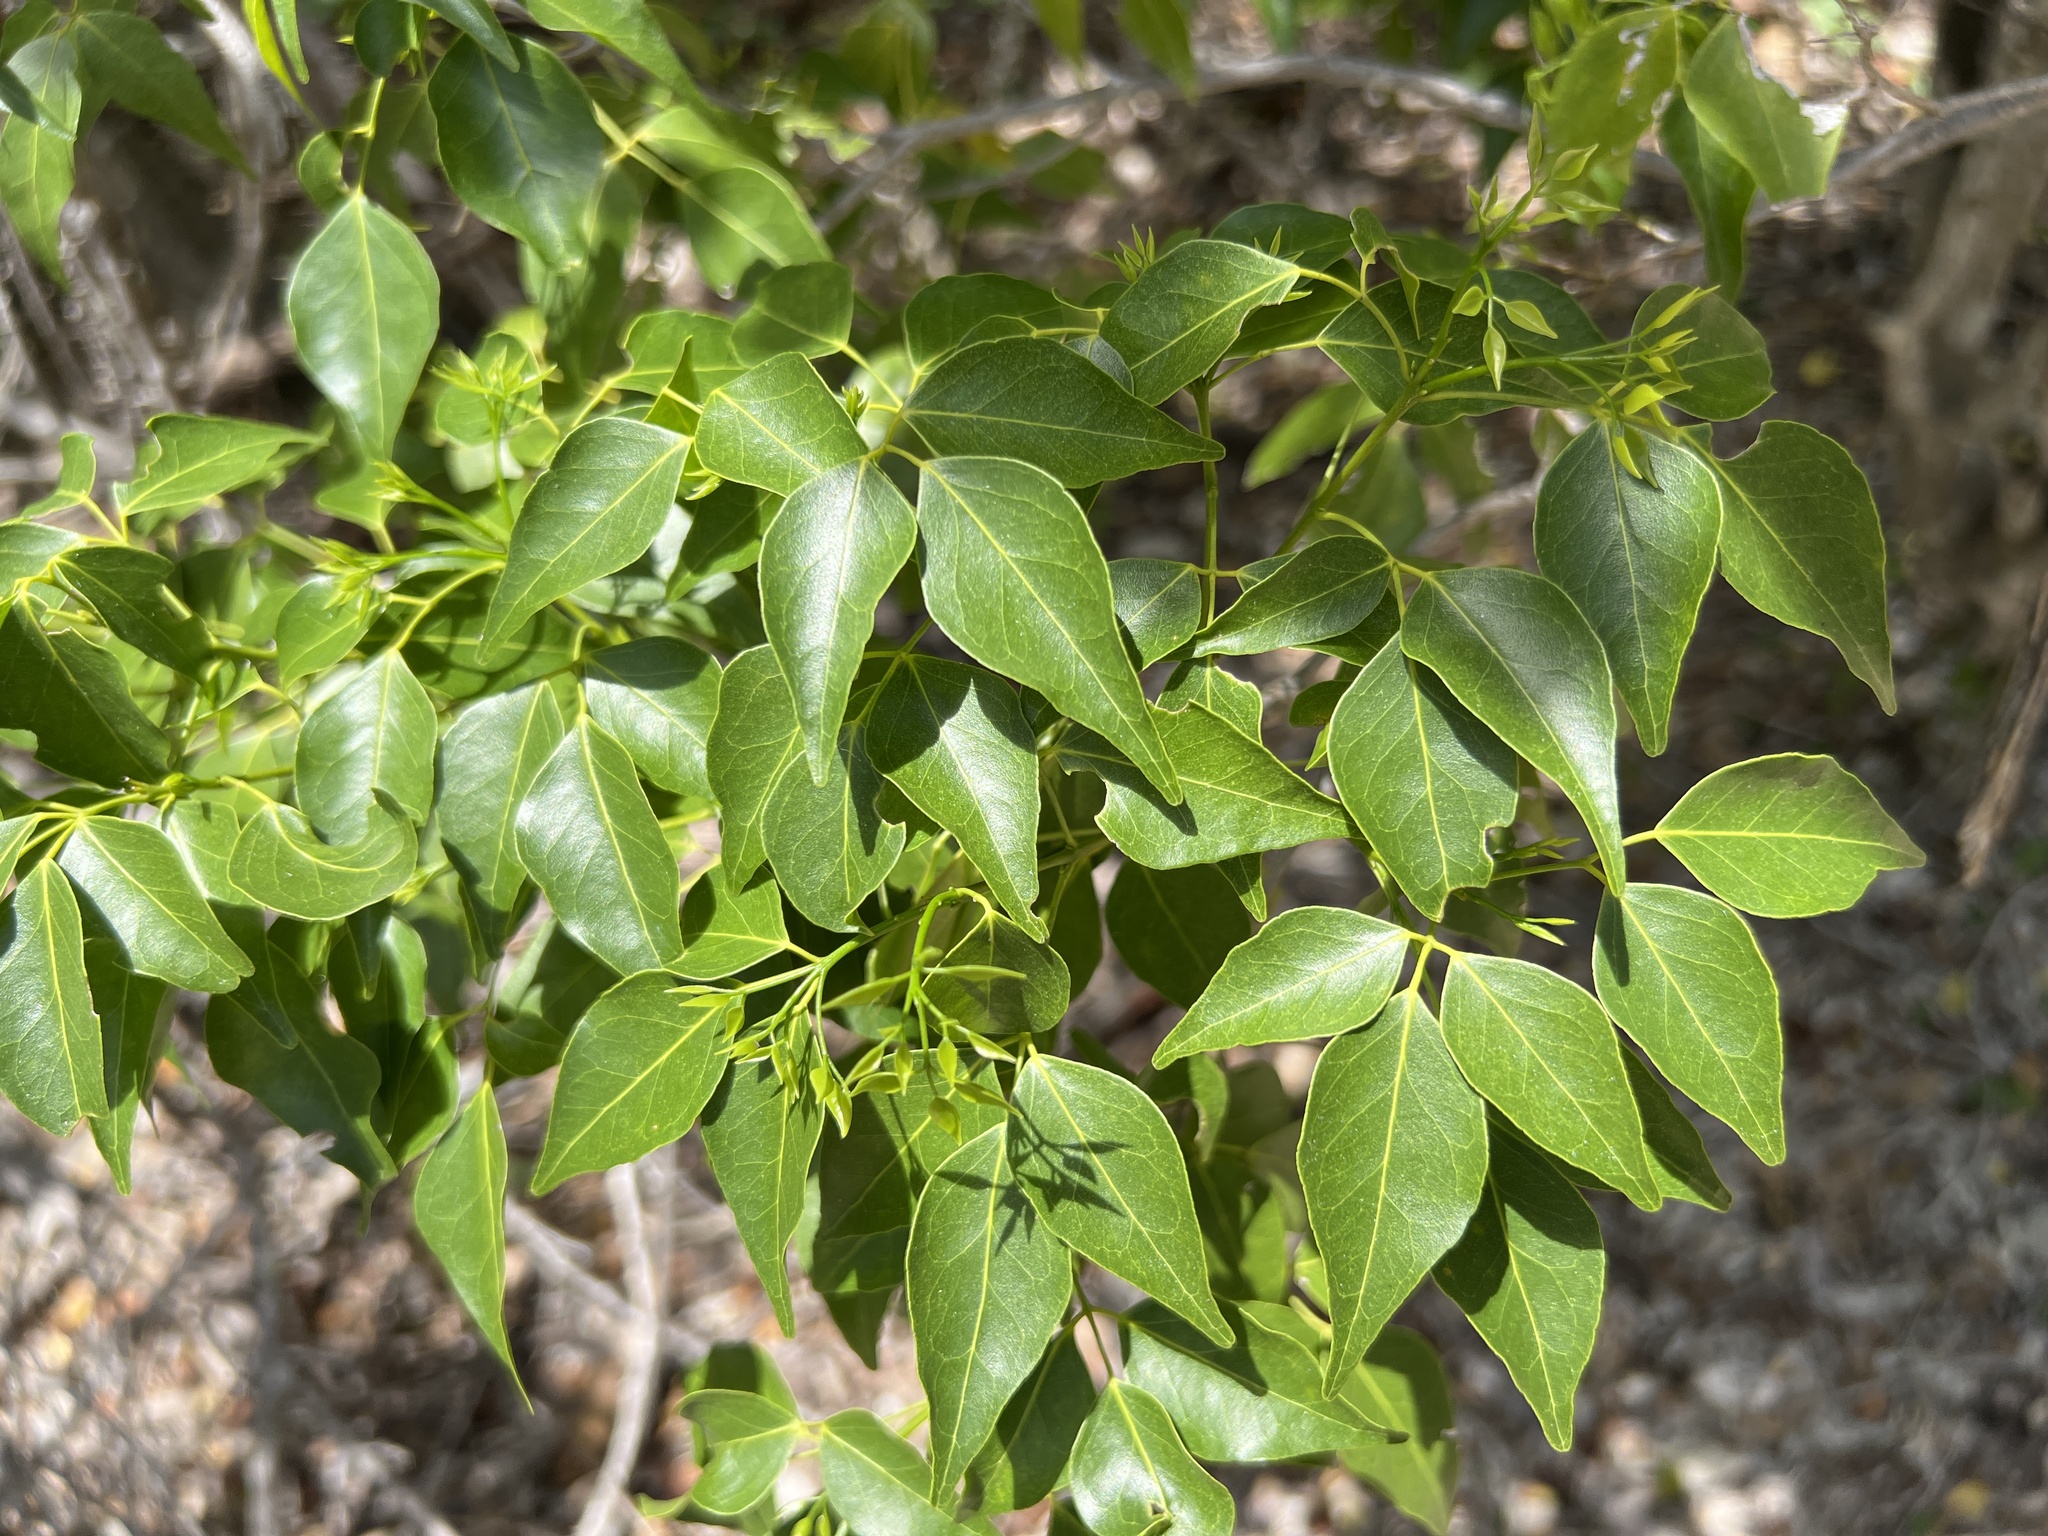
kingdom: Plantae
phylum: Tracheophyta
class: Magnoliopsida
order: Sapindales
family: Rutaceae
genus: Amyris
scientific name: Amyris elemifera
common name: Sea amyris
